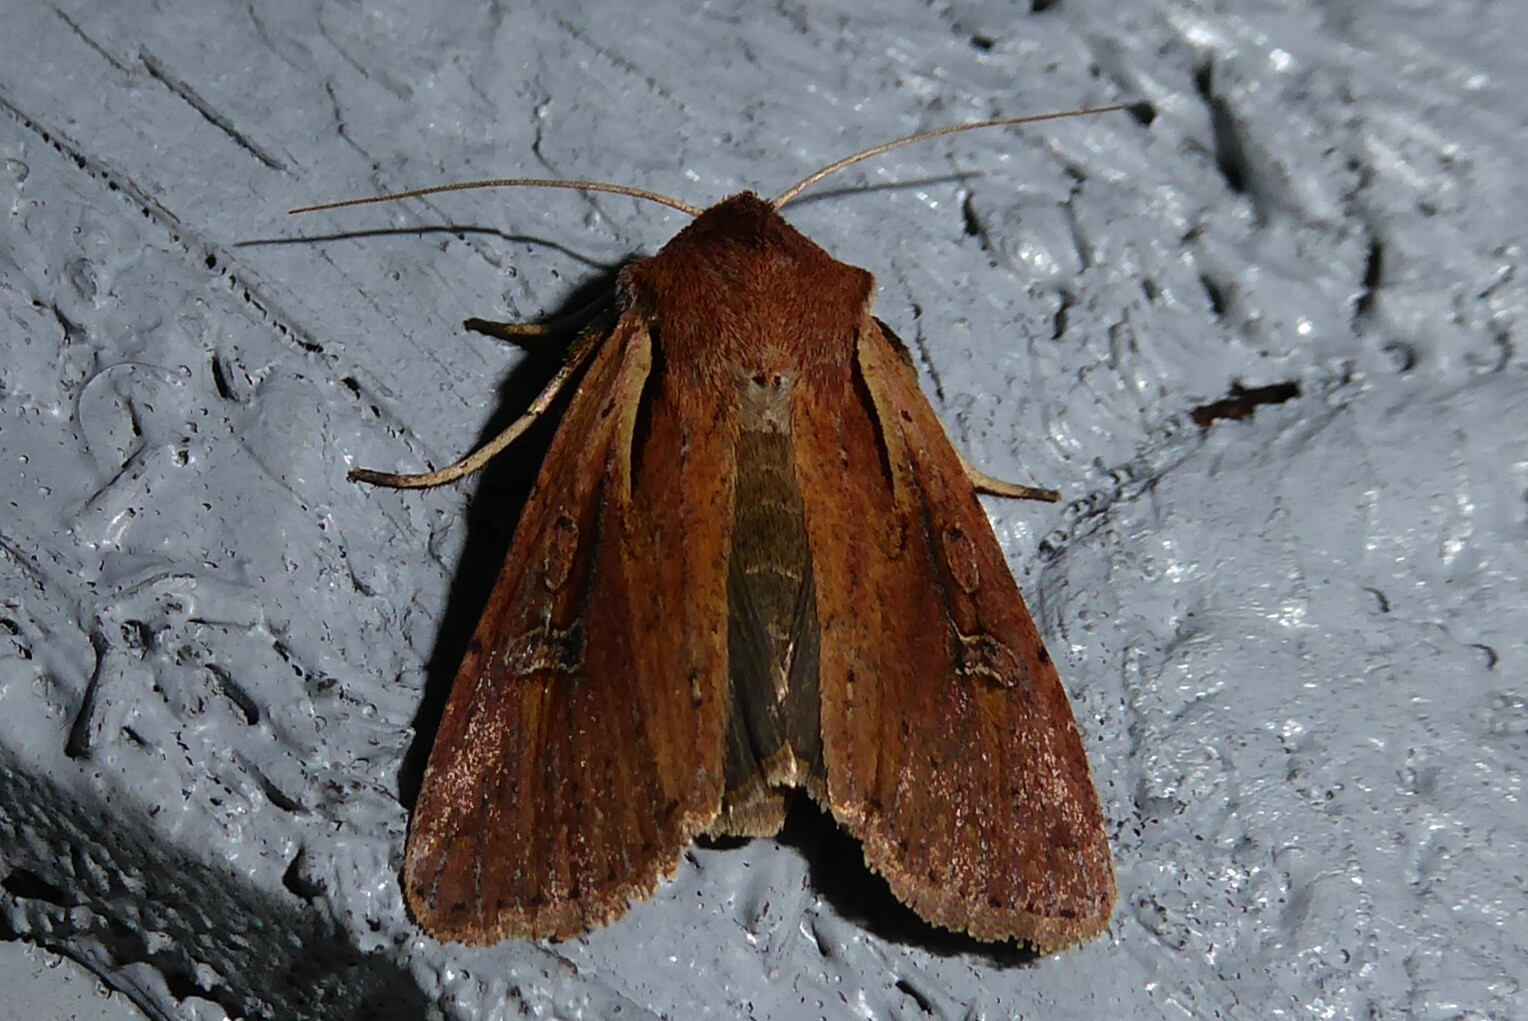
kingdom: Animalia
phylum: Arthropoda
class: Insecta
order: Lepidoptera
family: Noctuidae
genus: Ichneutica
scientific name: Ichneutica atristriga
